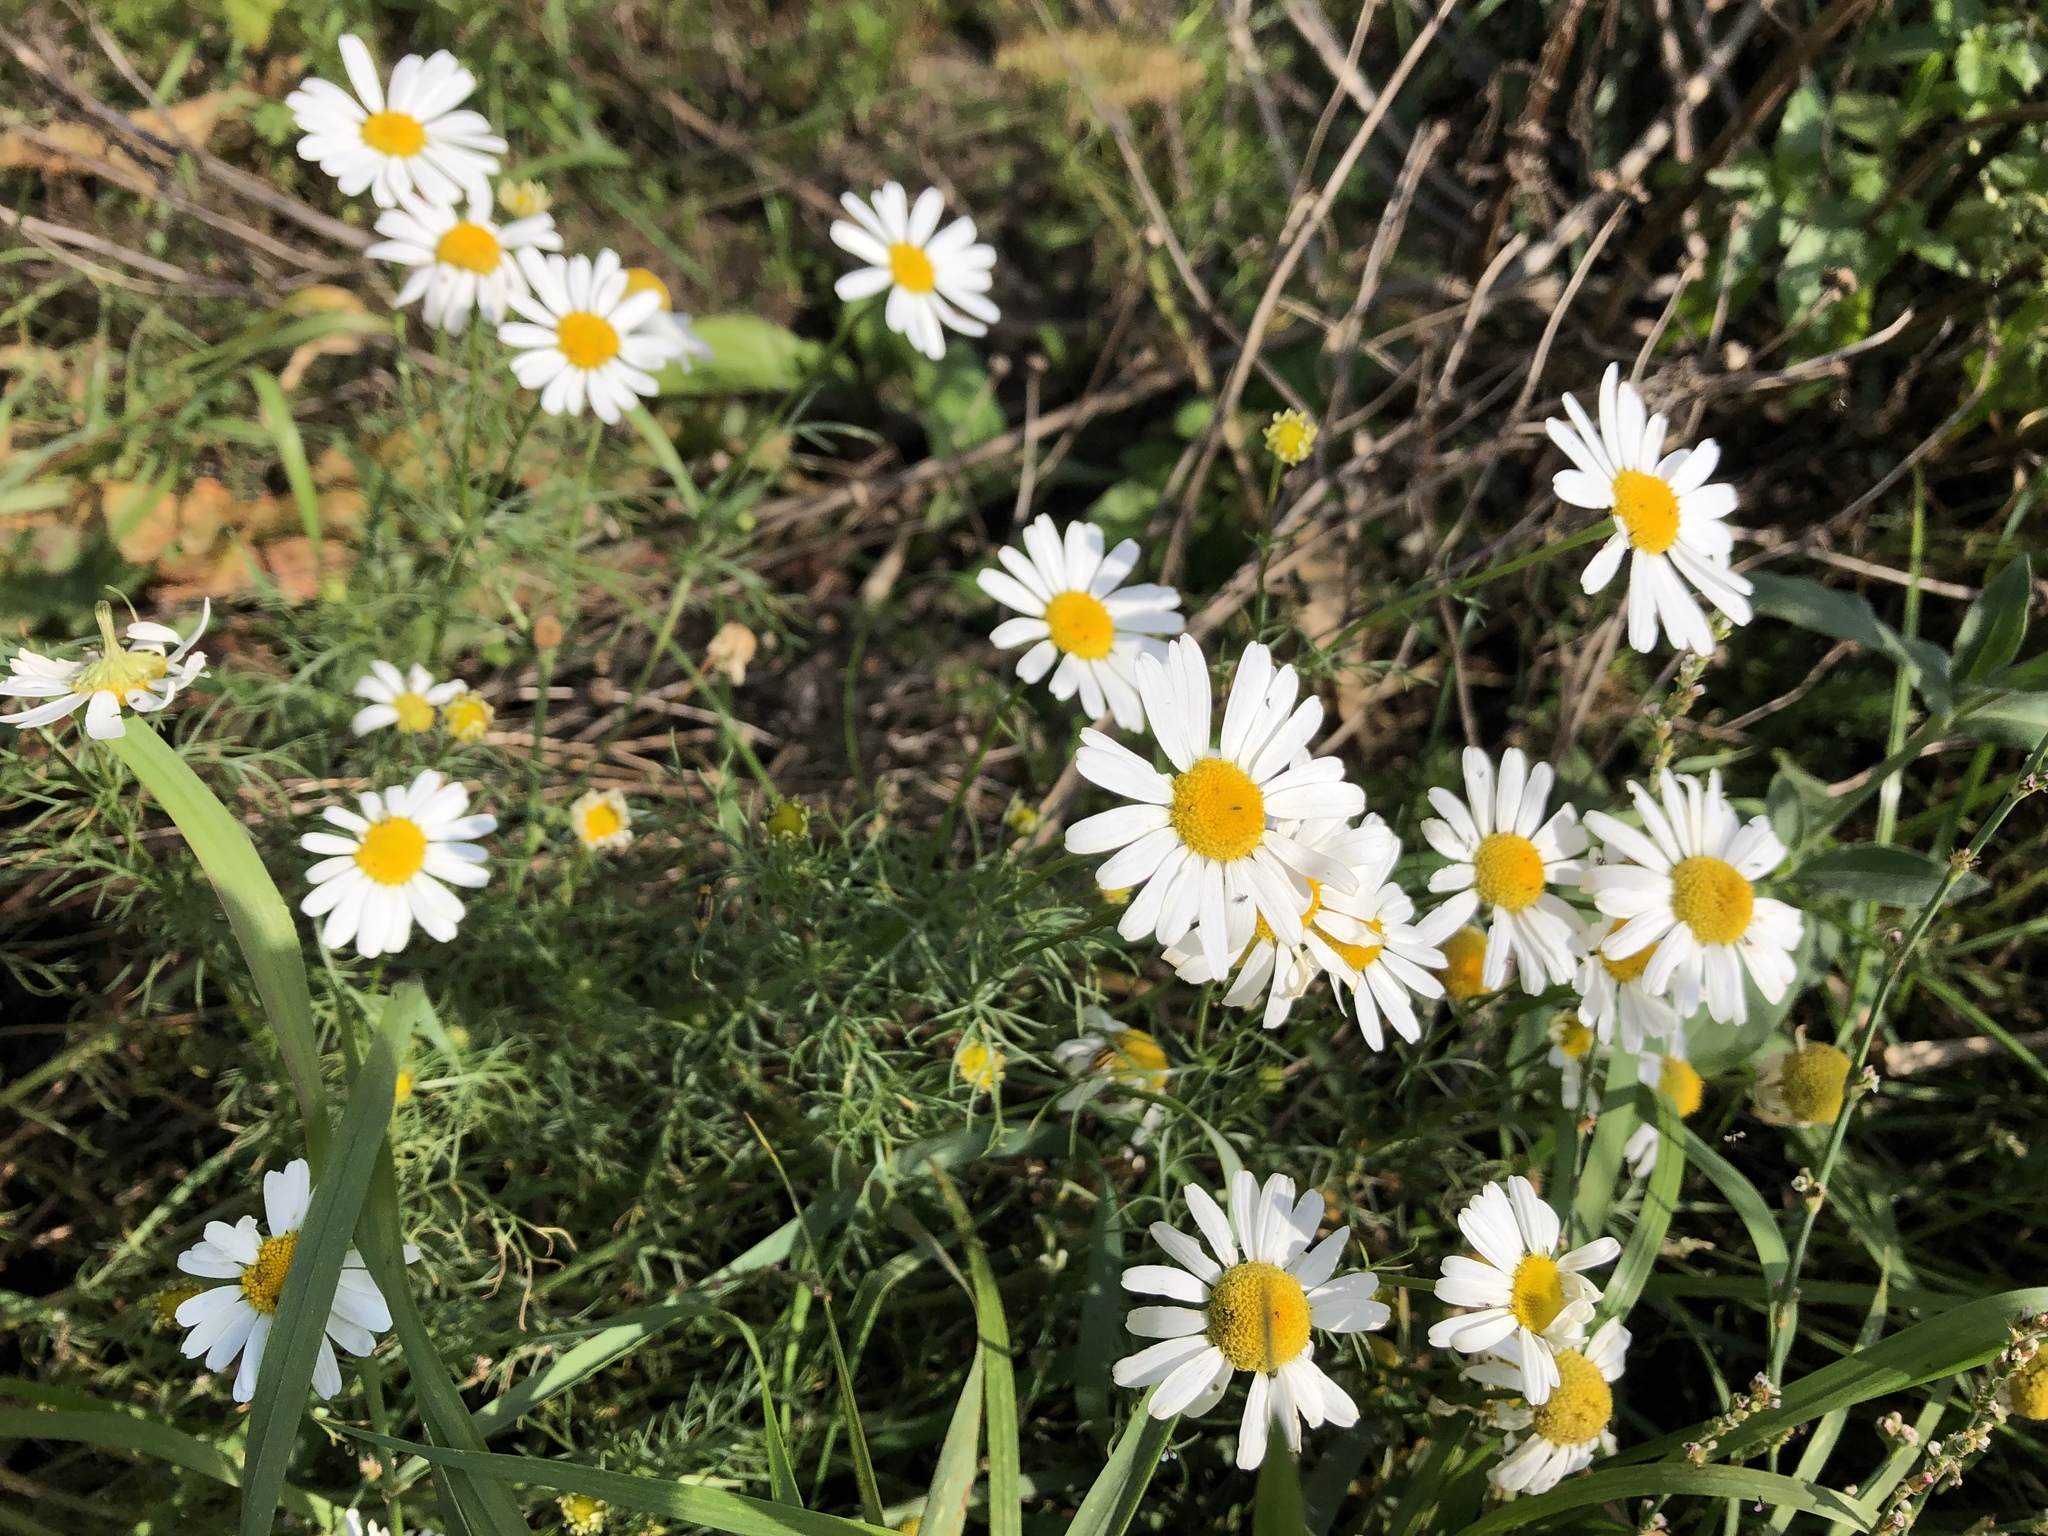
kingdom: Plantae
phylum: Tracheophyta
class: Magnoliopsida
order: Asterales
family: Asteraceae
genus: Tripleurospermum
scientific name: Tripleurospermum inodorum
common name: Scentless mayweed
